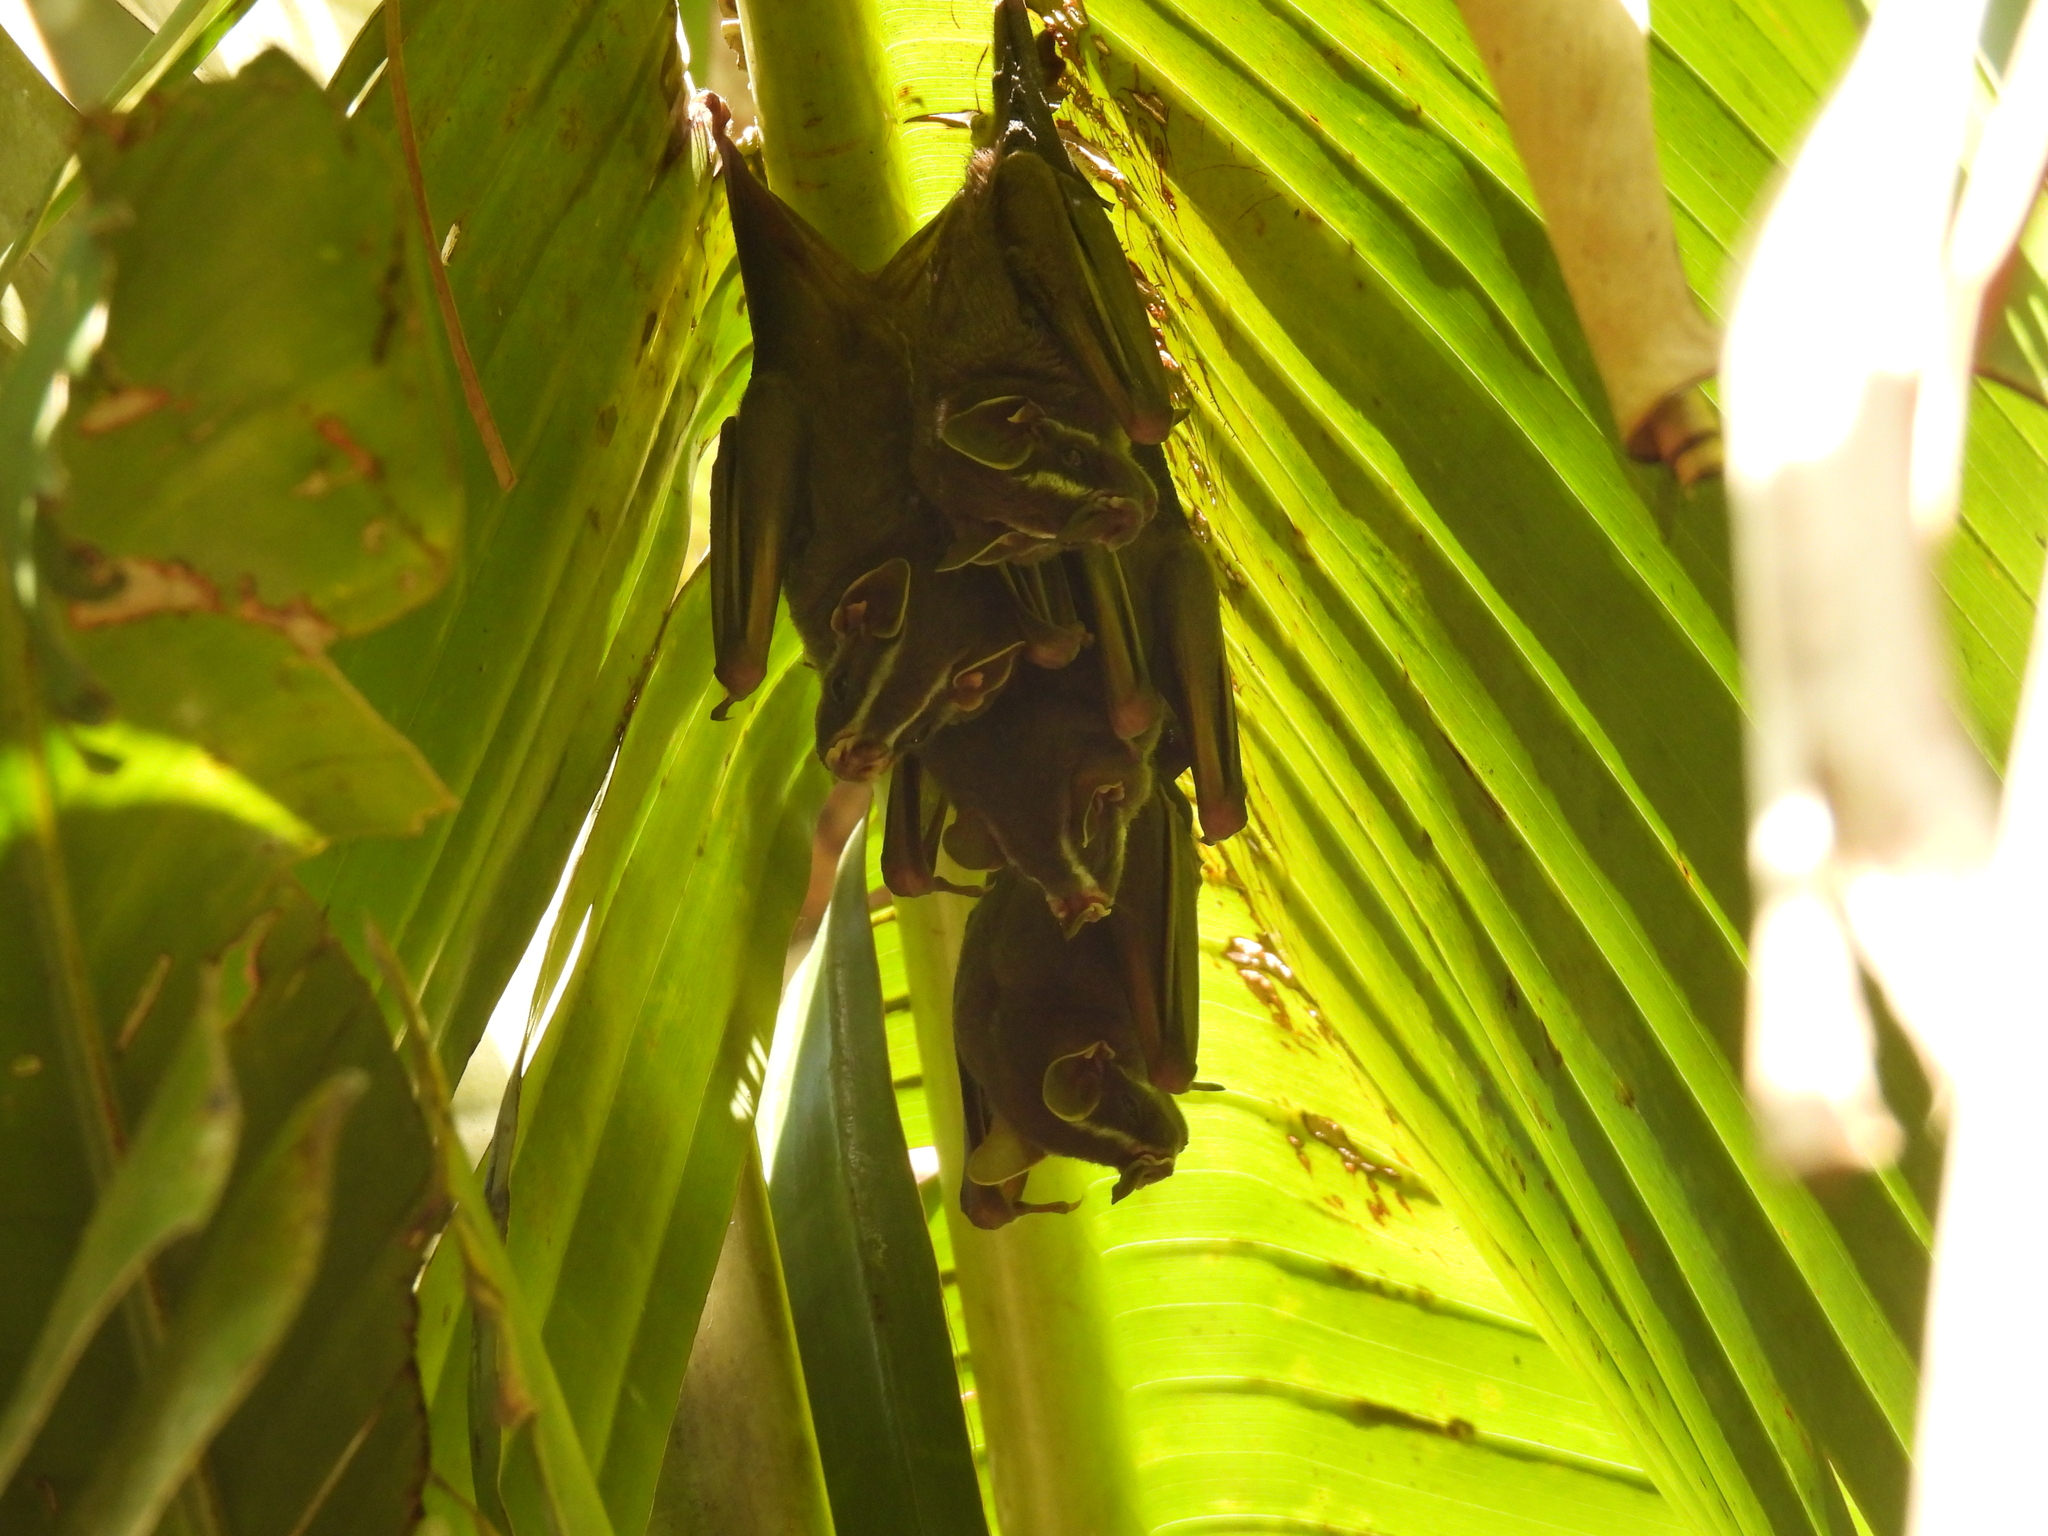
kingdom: Animalia
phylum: Chordata
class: Mammalia
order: Chiroptera
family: Phyllostomidae
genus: Uroderma
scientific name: Uroderma bilobatum
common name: Common tent-making bat
